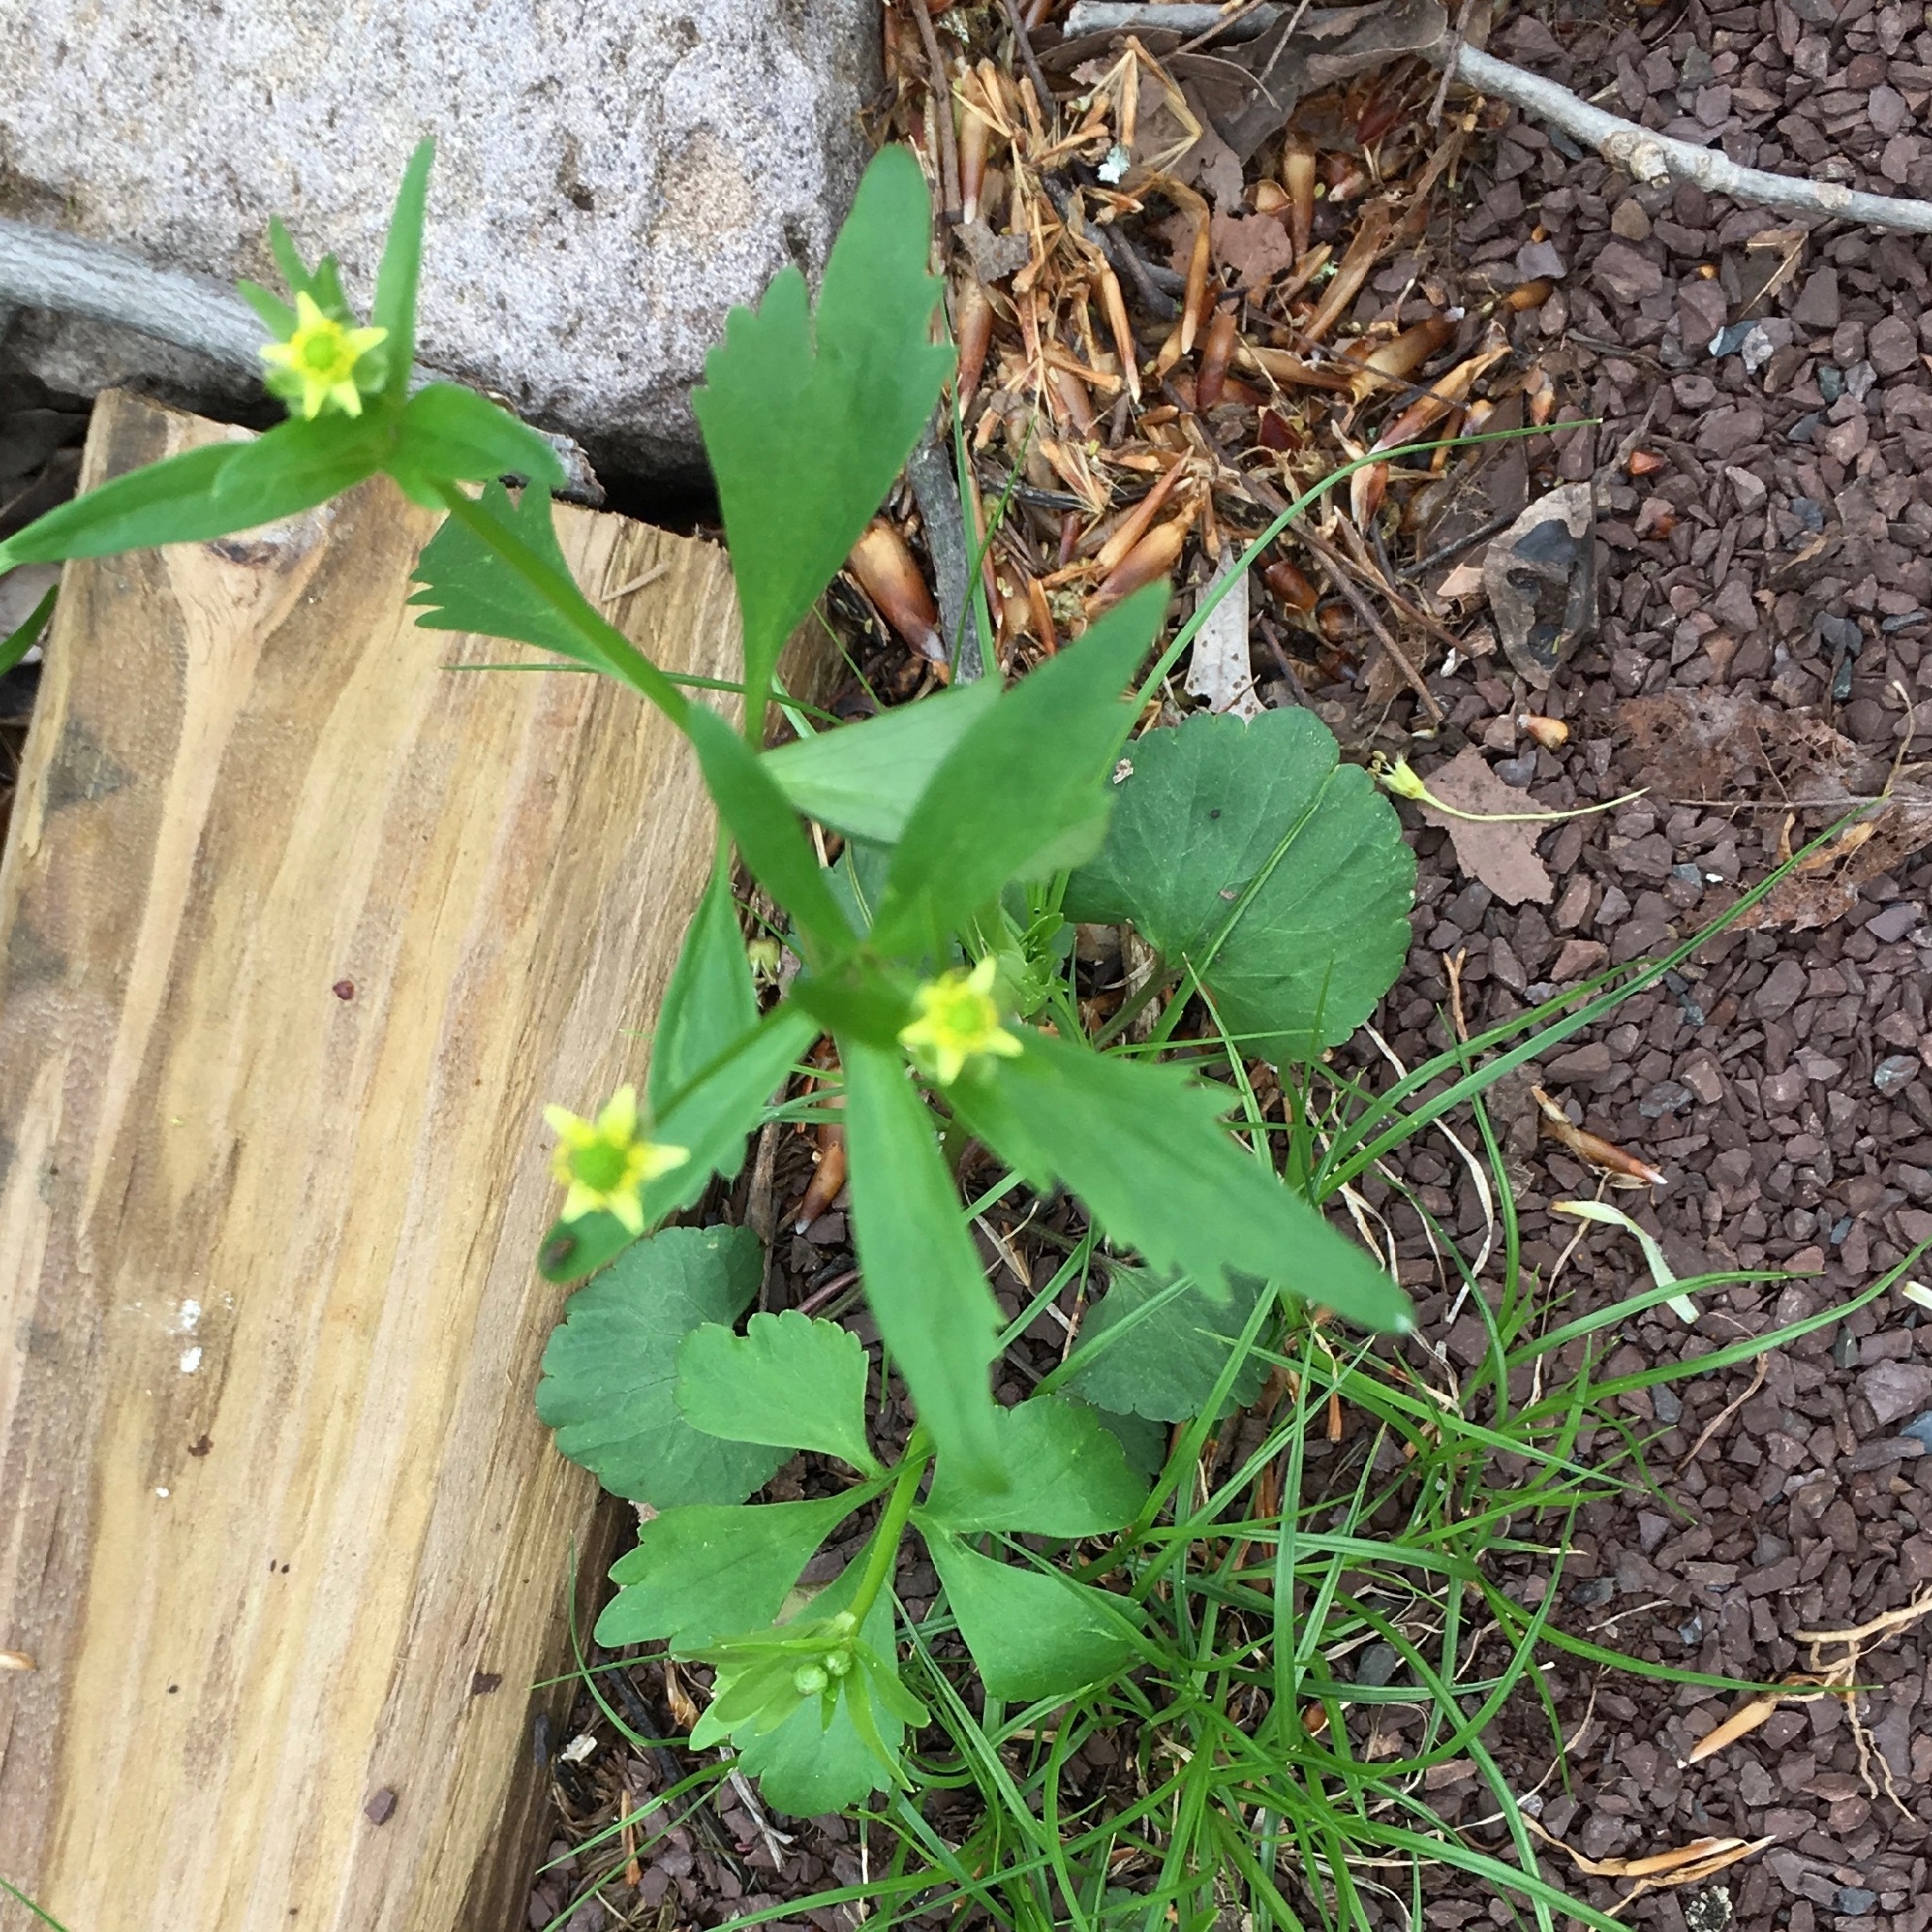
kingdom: Plantae
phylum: Tracheophyta
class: Magnoliopsida
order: Ranunculales
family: Ranunculaceae
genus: Ranunculus
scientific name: Ranunculus abortivus
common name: Early wood buttercup
